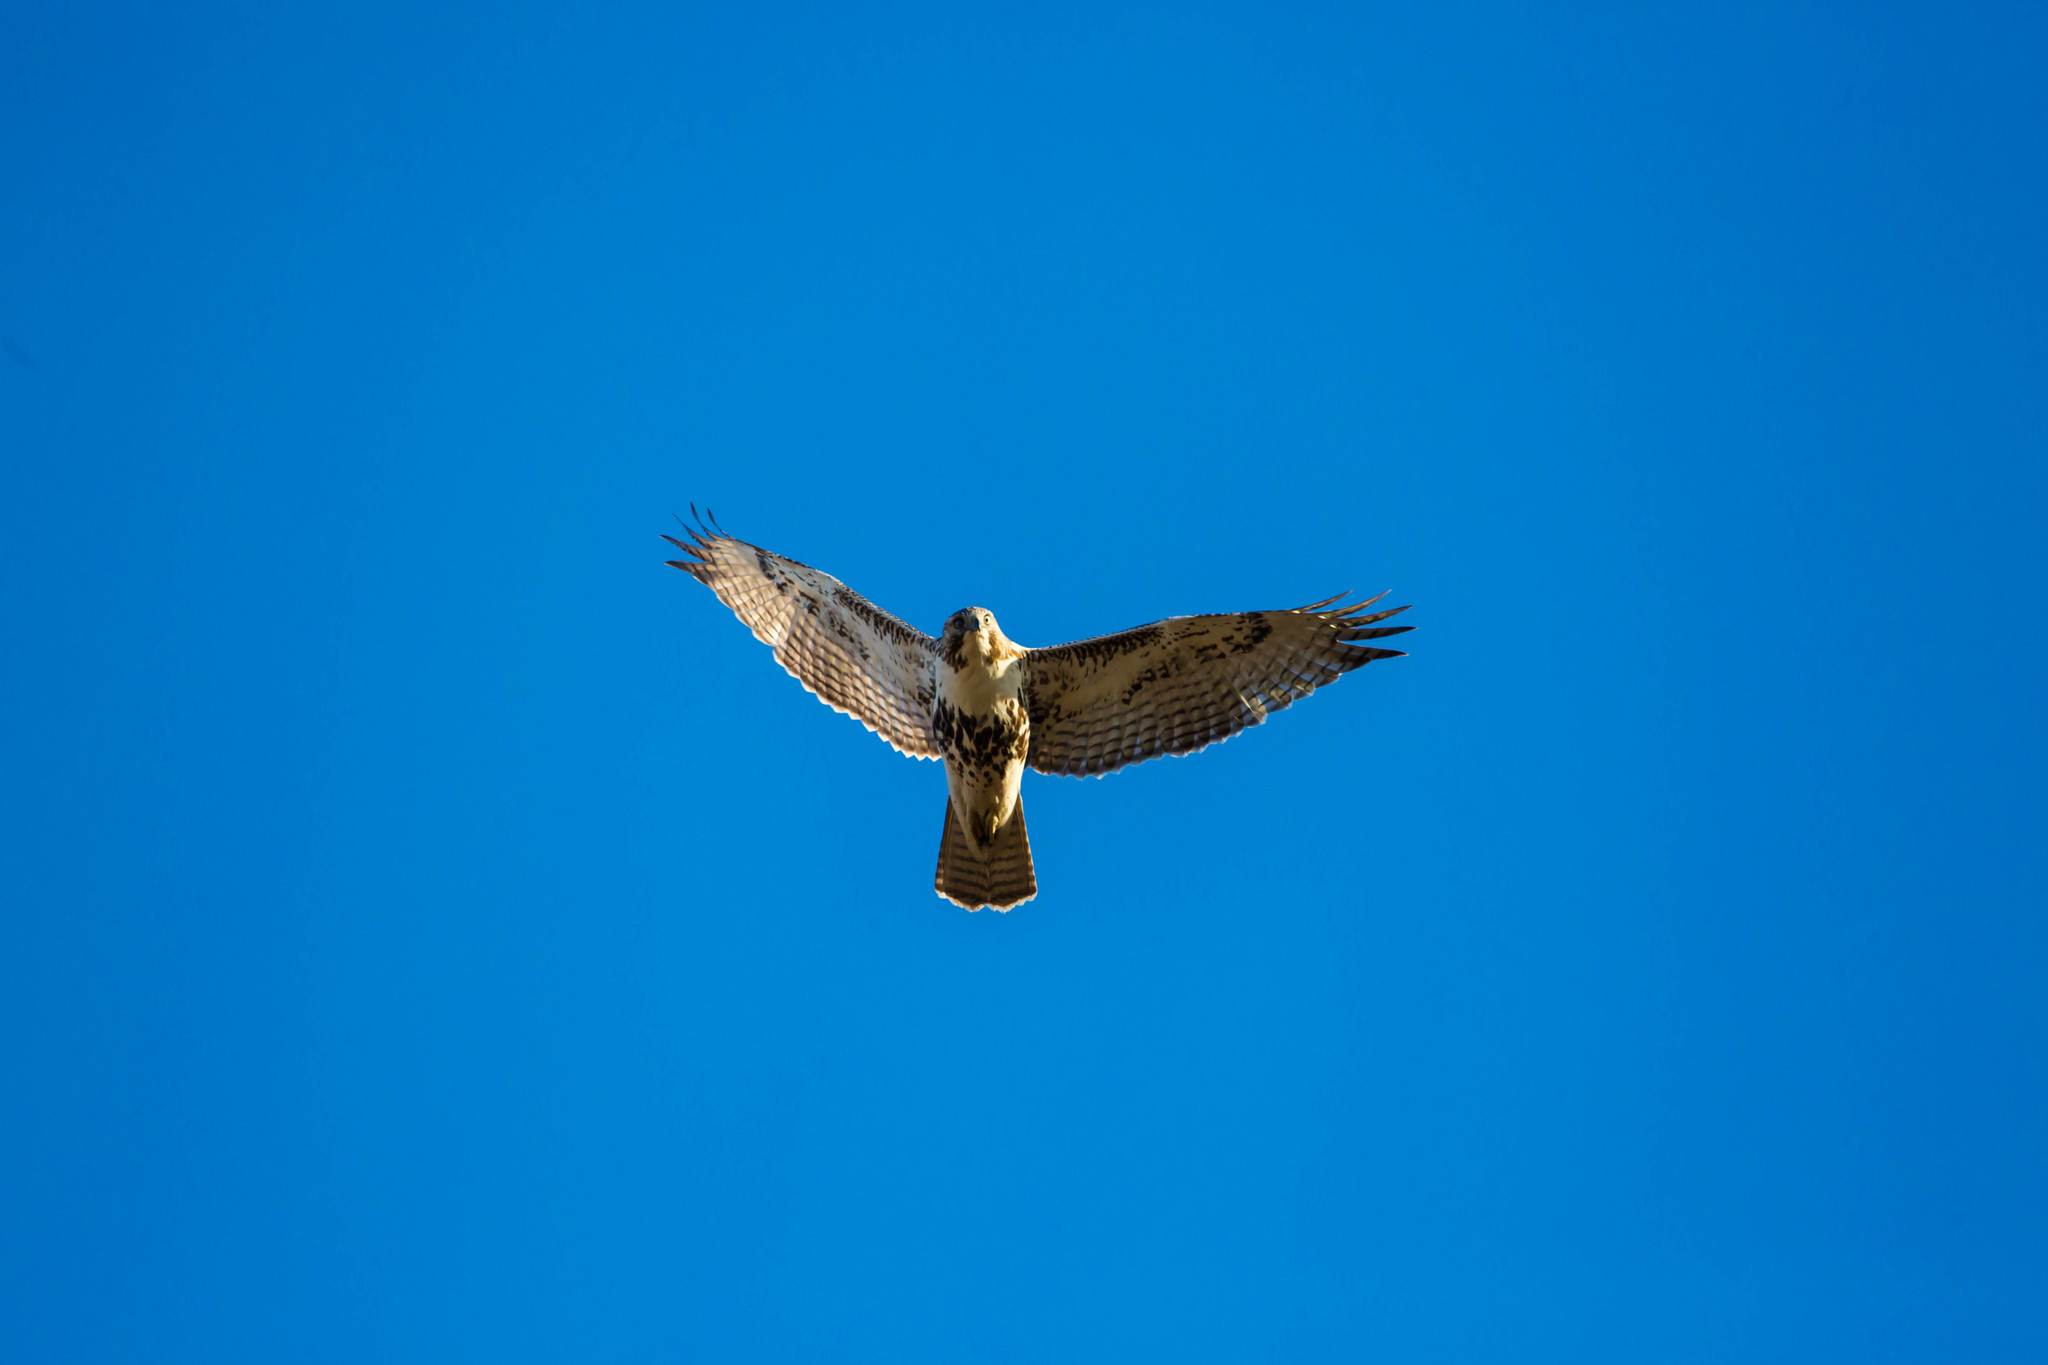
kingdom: Animalia
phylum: Chordata
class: Aves
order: Accipitriformes
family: Accipitridae
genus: Buteo
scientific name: Buteo jamaicensis
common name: Red-tailed hawk
